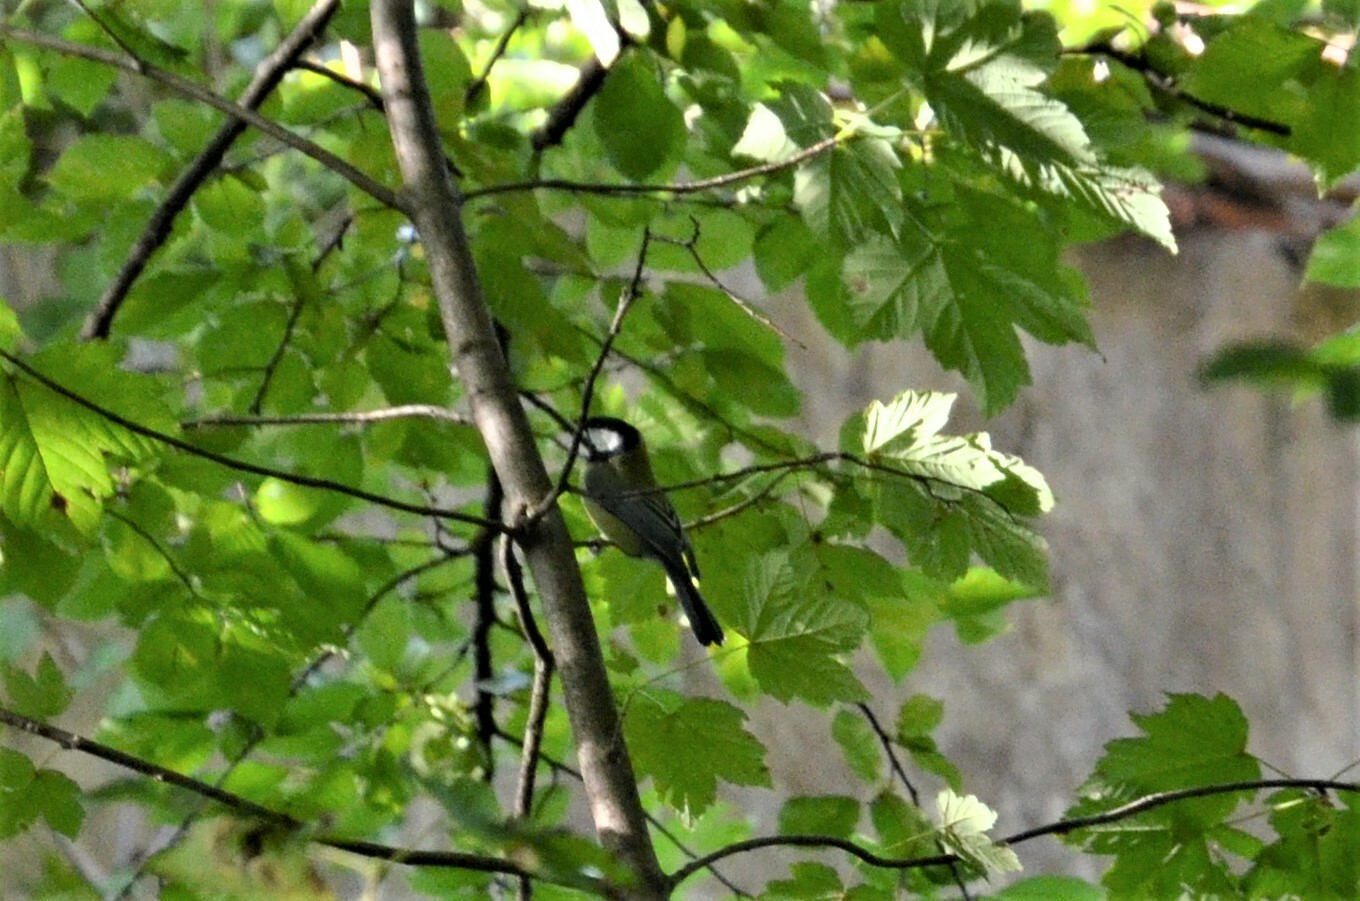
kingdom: Animalia
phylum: Chordata
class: Aves
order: Passeriformes
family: Paridae
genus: Parus
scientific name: Parus major
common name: Great tit
